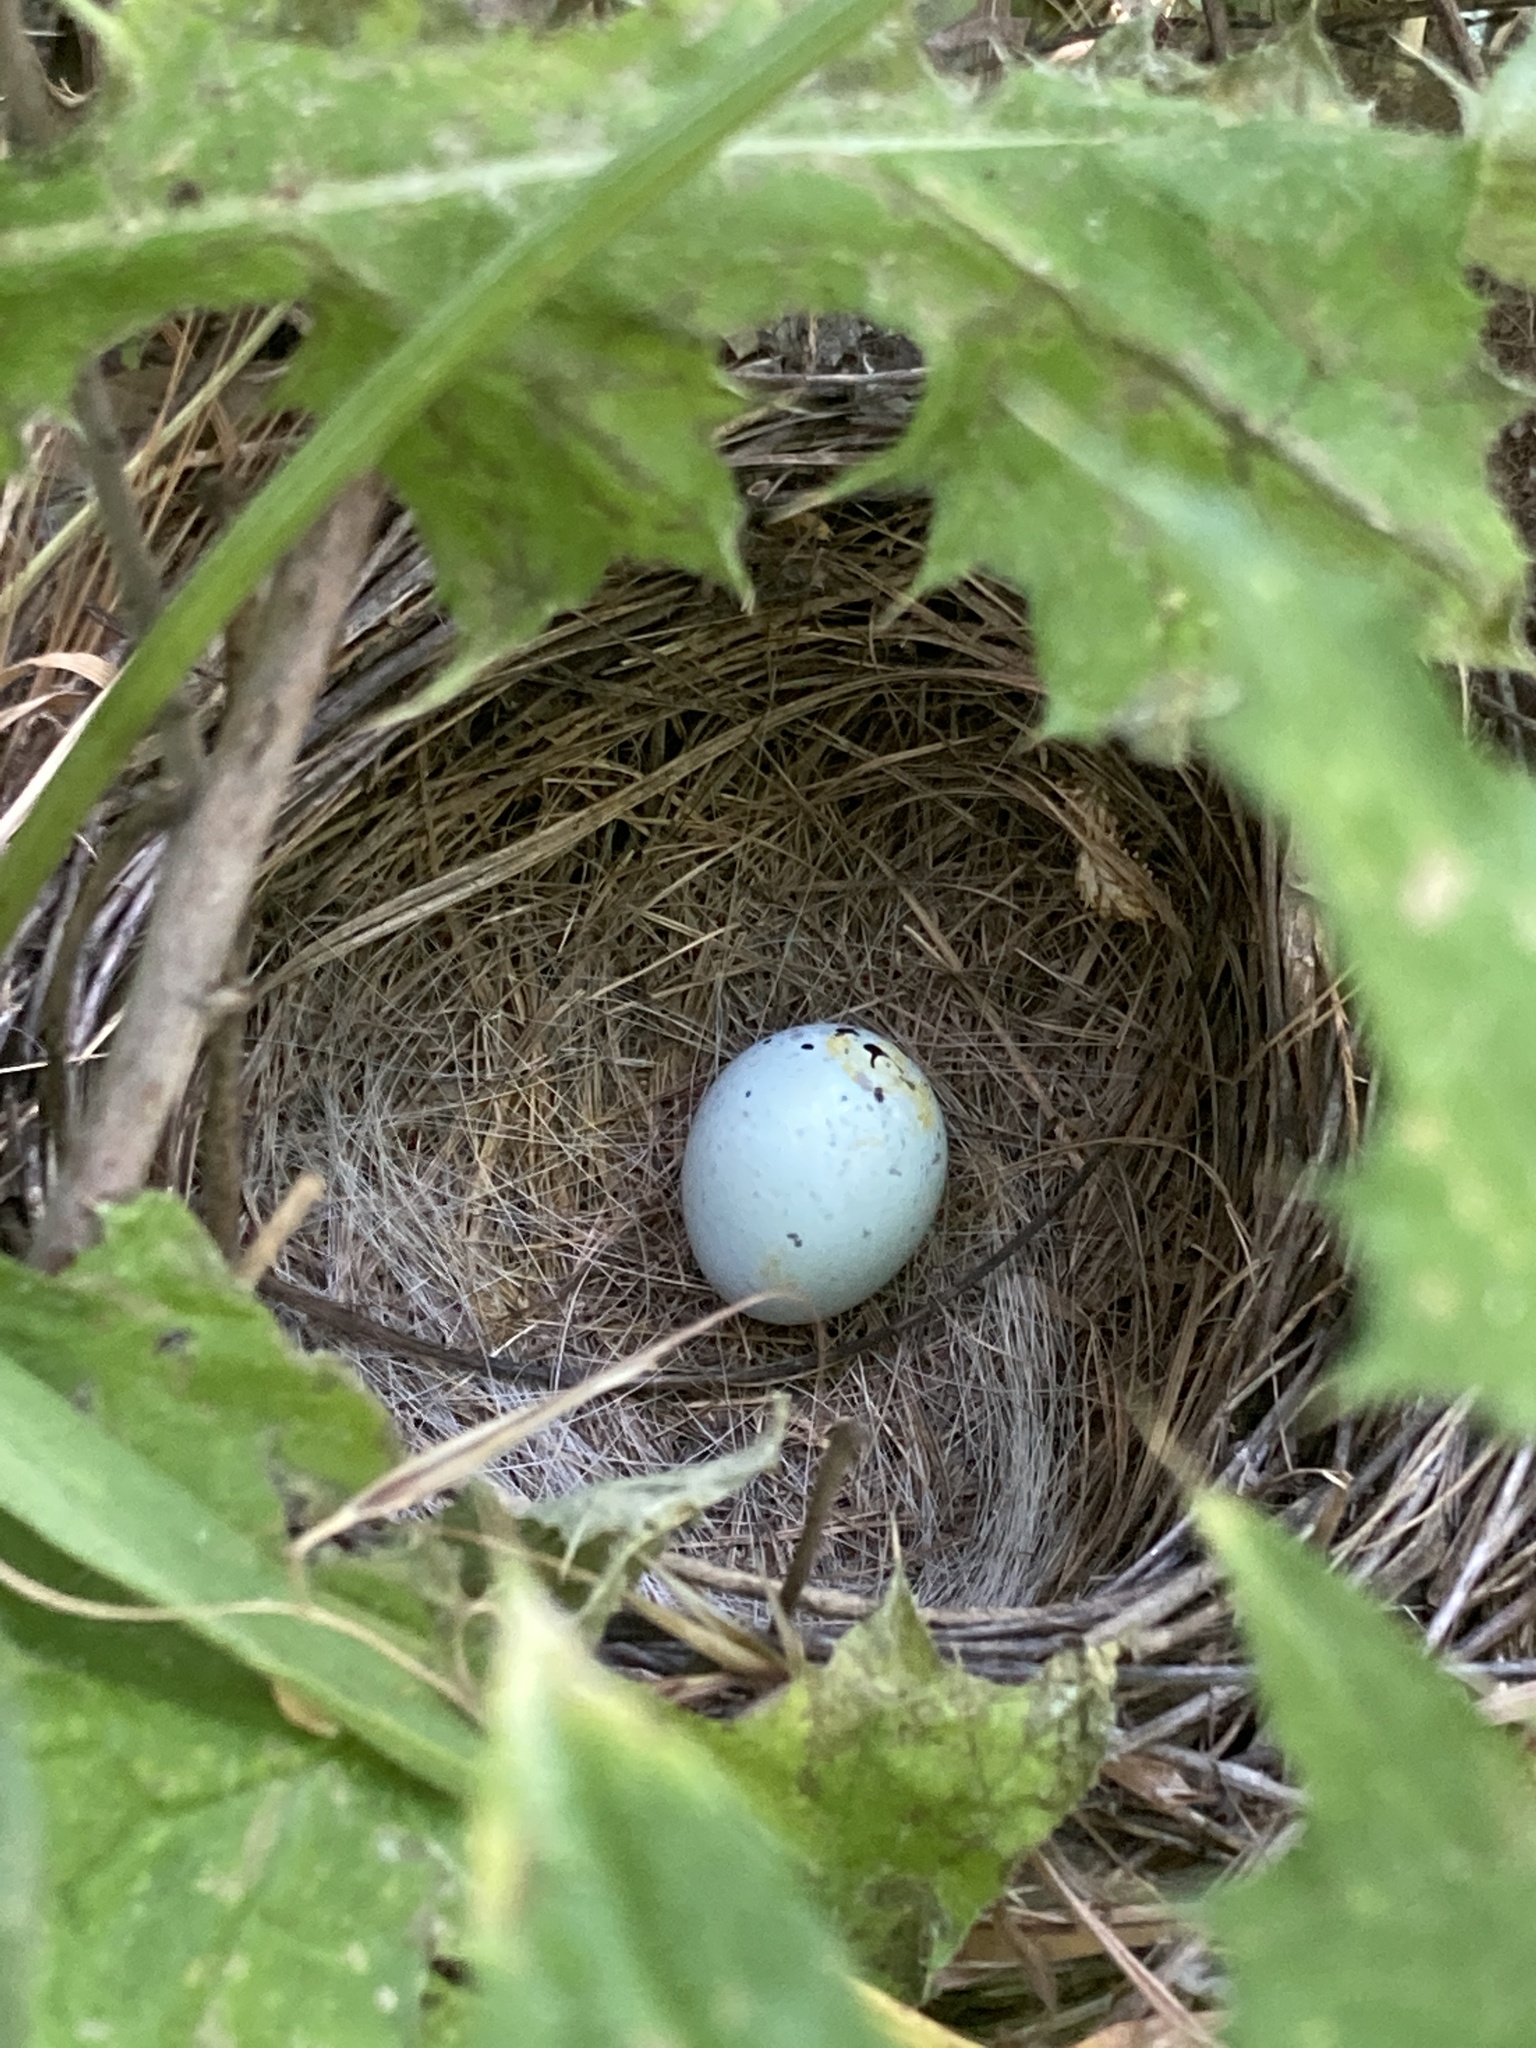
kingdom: Animalia
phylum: Chordata
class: Aves
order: Passeriformes
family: Passerellidae
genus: Melozone
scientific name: Melozone crissalis
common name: California towhee
